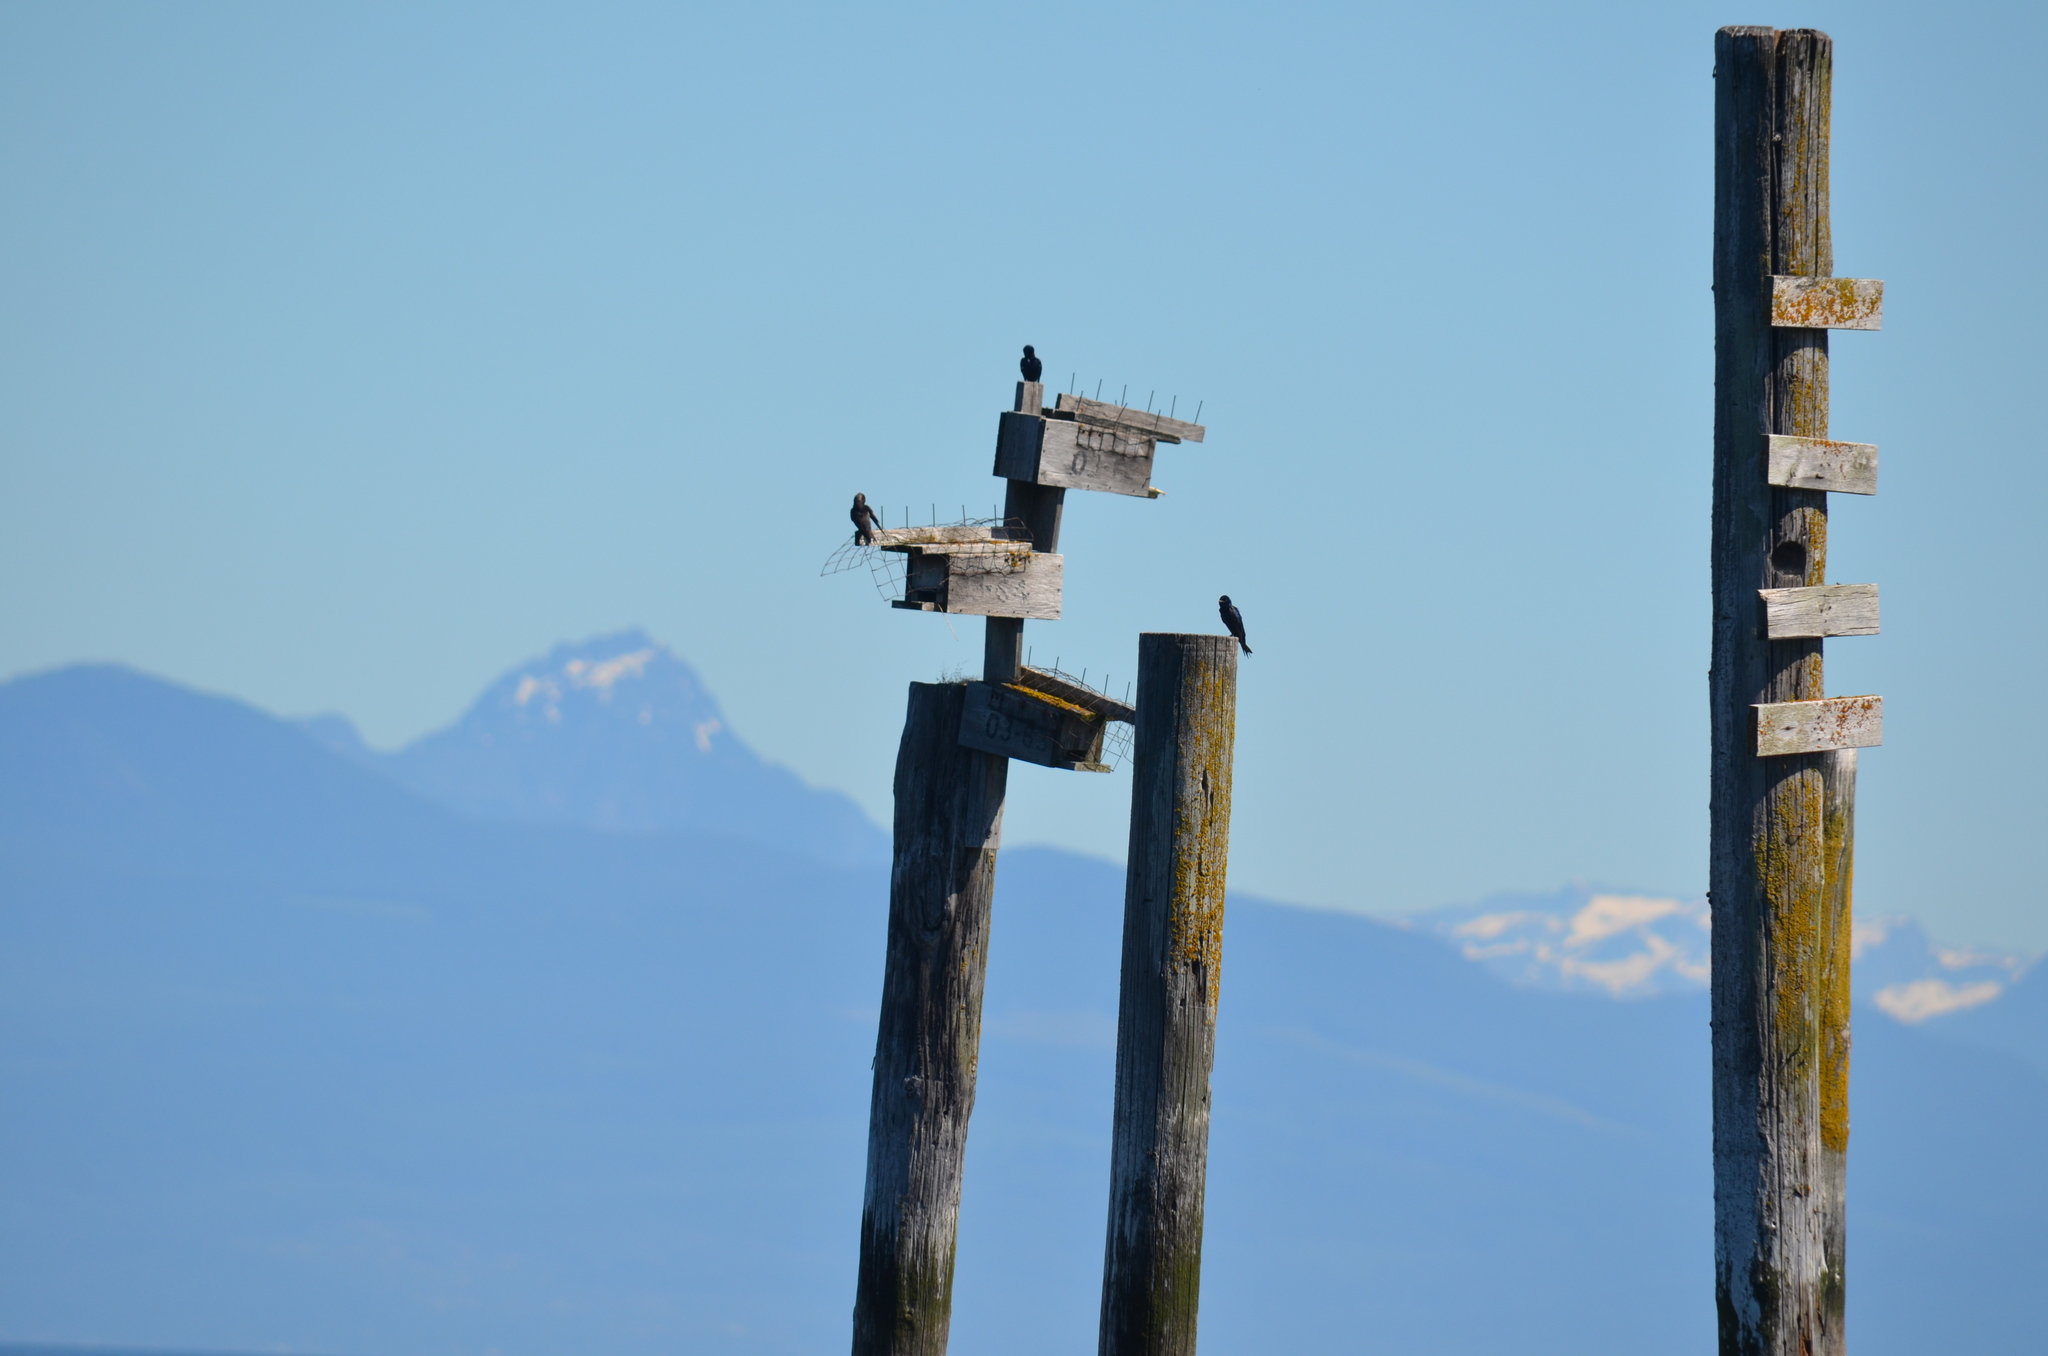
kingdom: Animalia
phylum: Chordata
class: Aves
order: Passeriformes
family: Hirundinidae
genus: Progne
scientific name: Progne subis
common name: Purple martin
